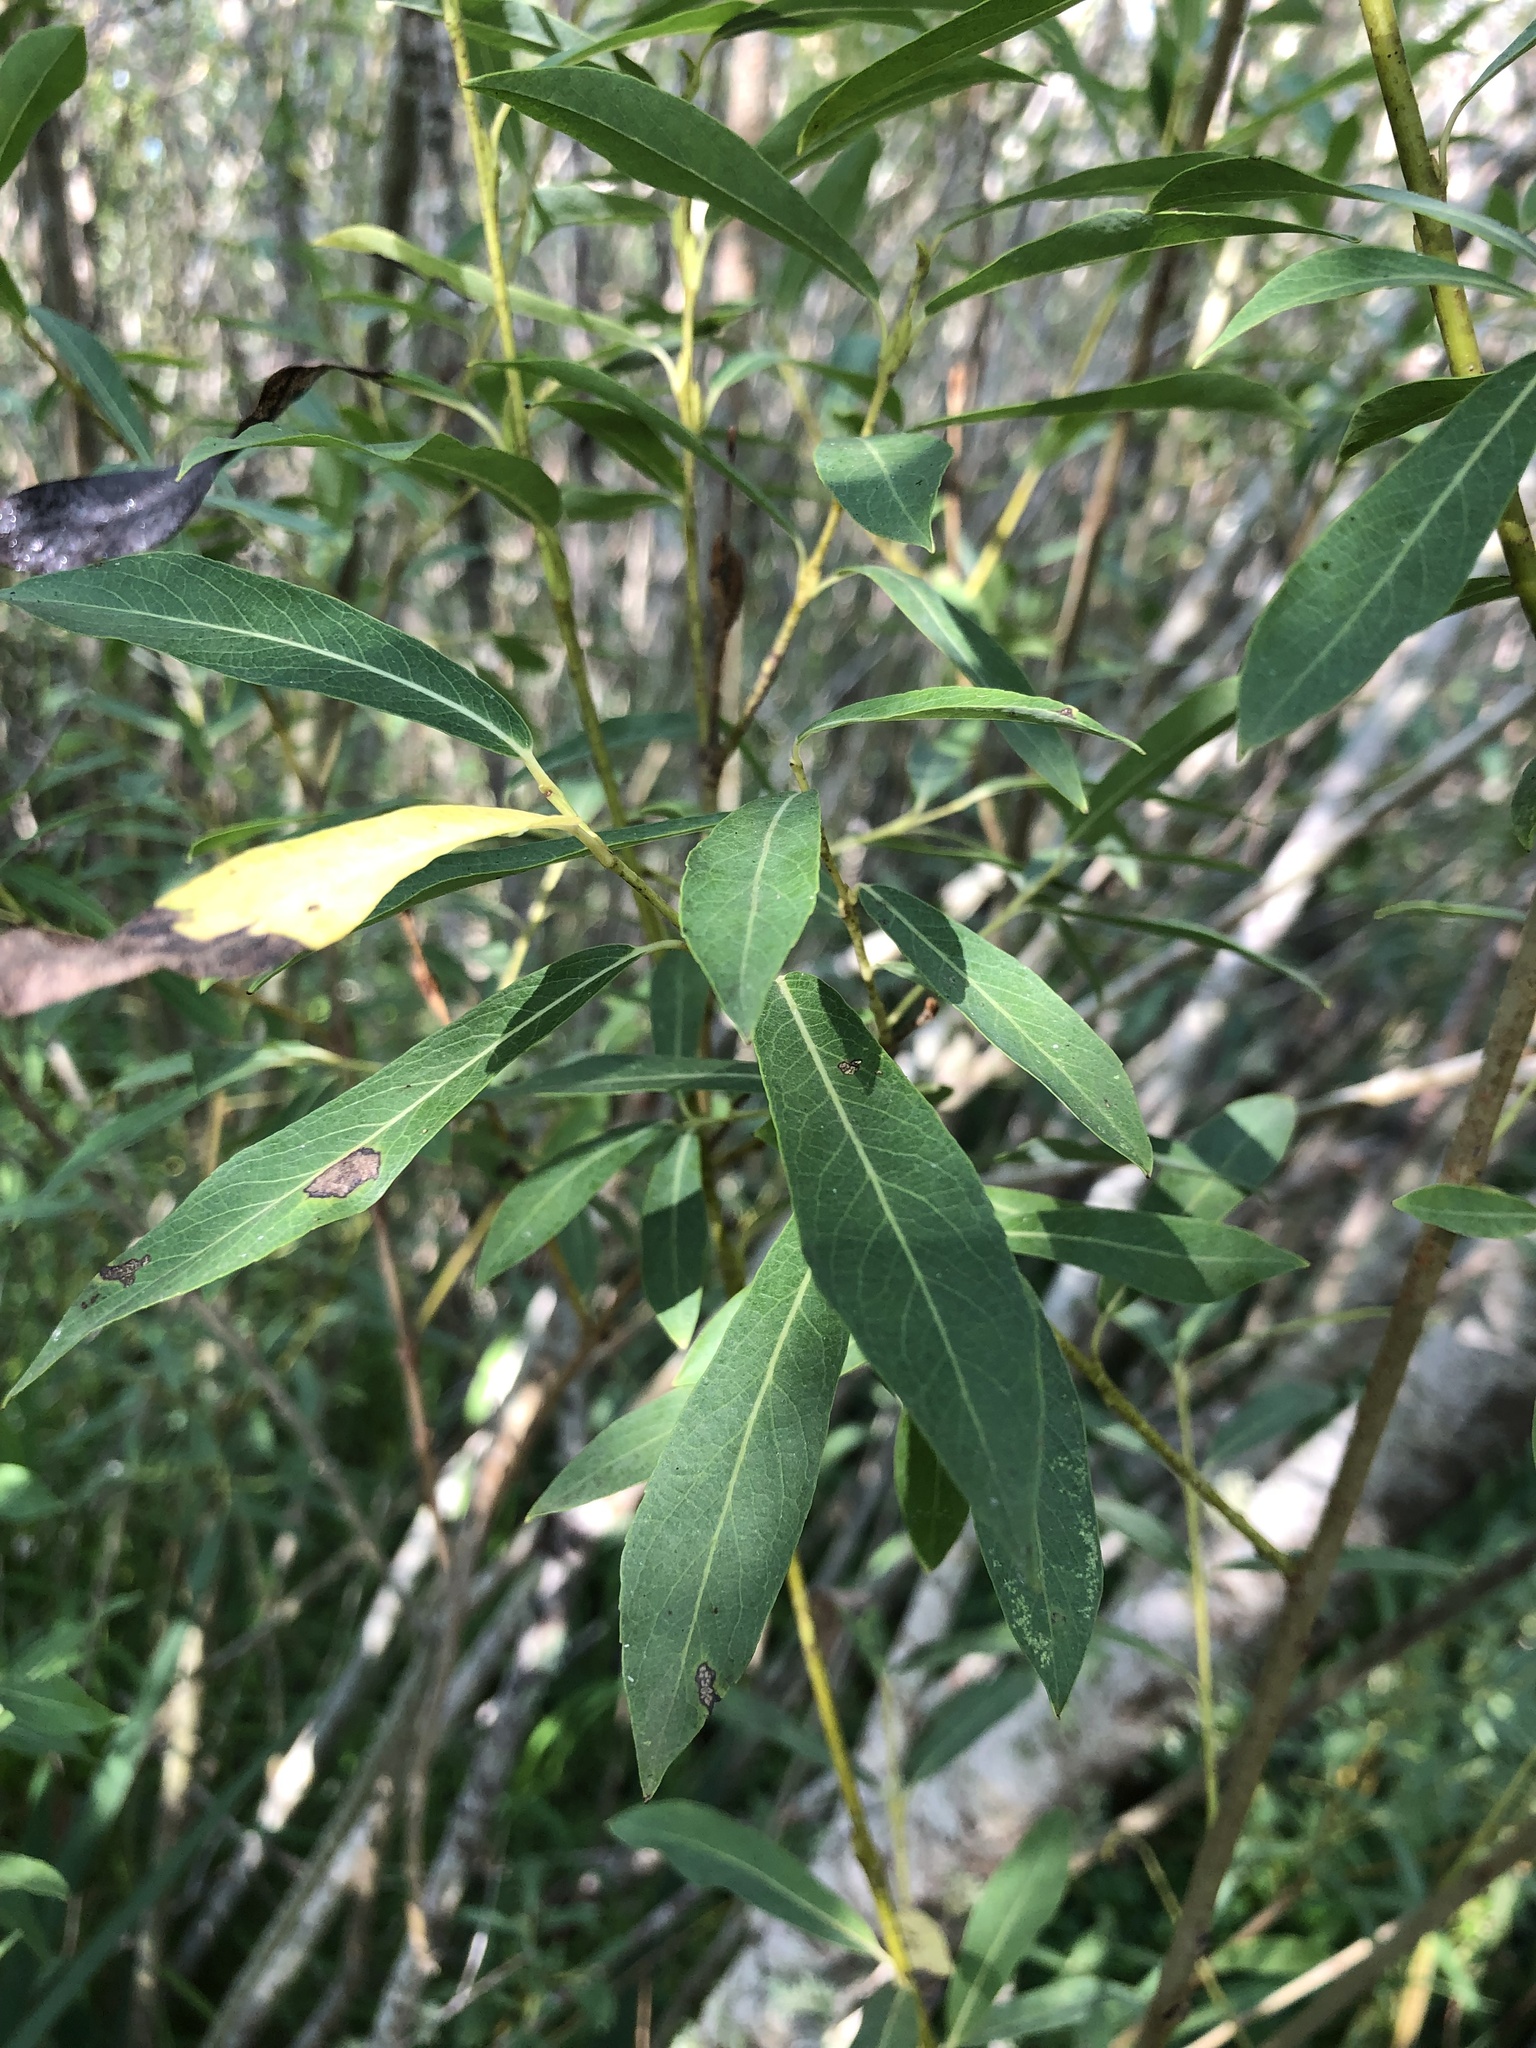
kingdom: Plantae
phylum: Tracheophyta
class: Magnoliopsida
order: Malpighiales
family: Salicaceae
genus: Salix
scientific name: Salix purpurea
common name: Purple willow
